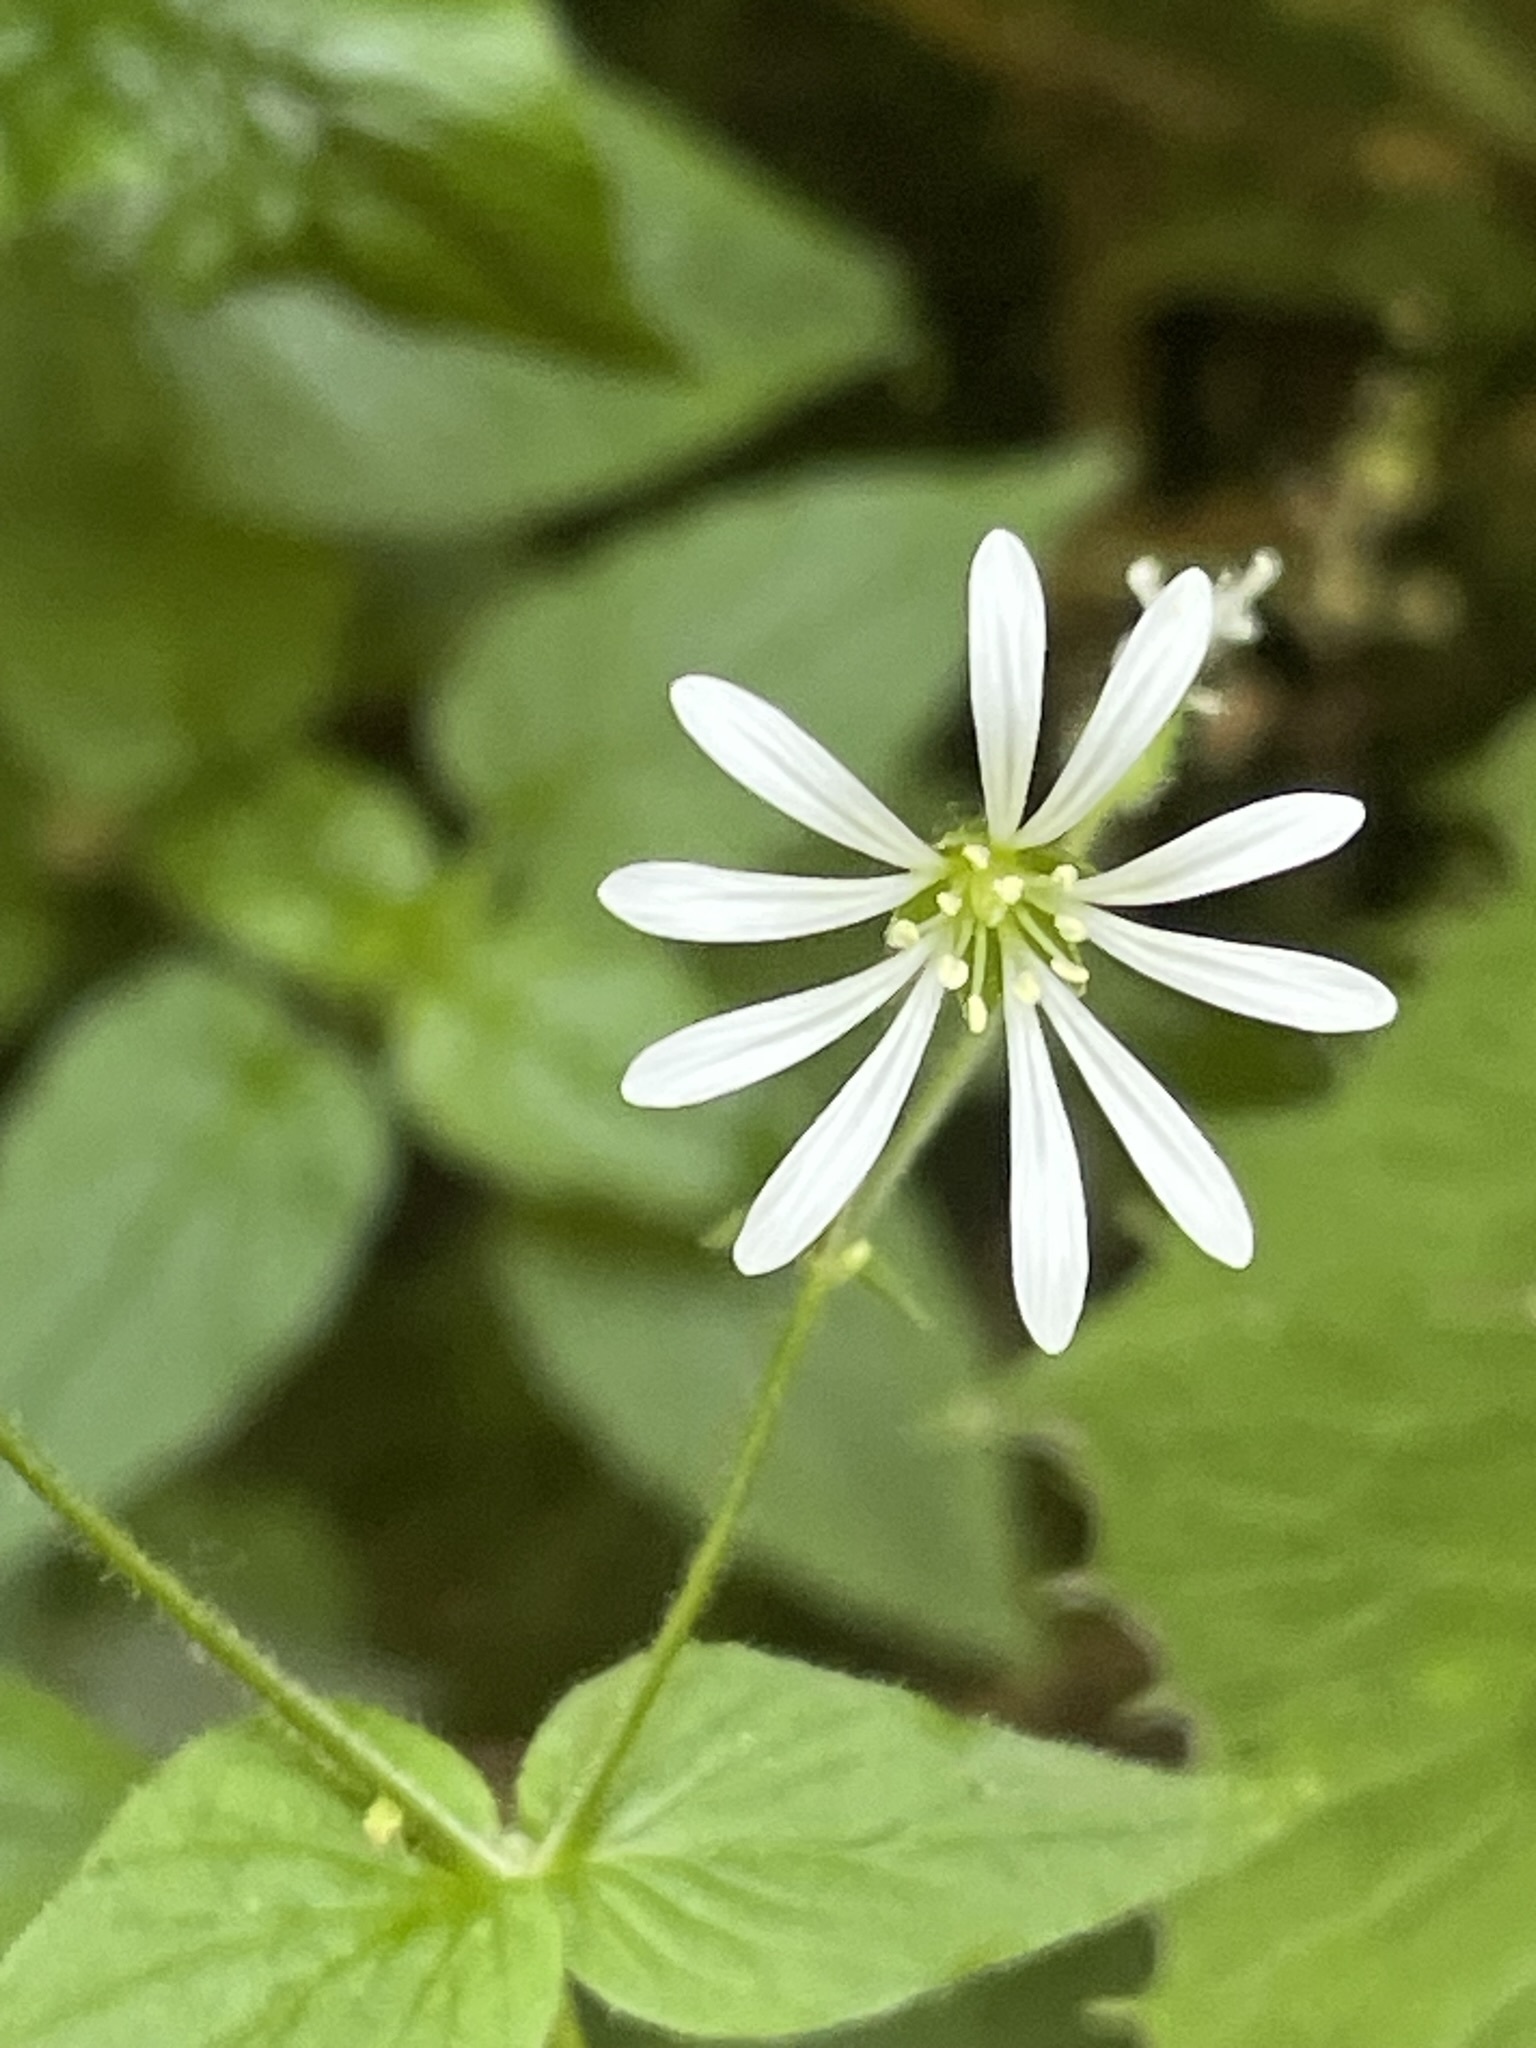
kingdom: Plantae
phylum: Tracheophyta
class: Magnoliopsida
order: Caryophyllales
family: Caryophyllaceae
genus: Stellaria
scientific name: Stellaria nemorum
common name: Wood stitchwort
